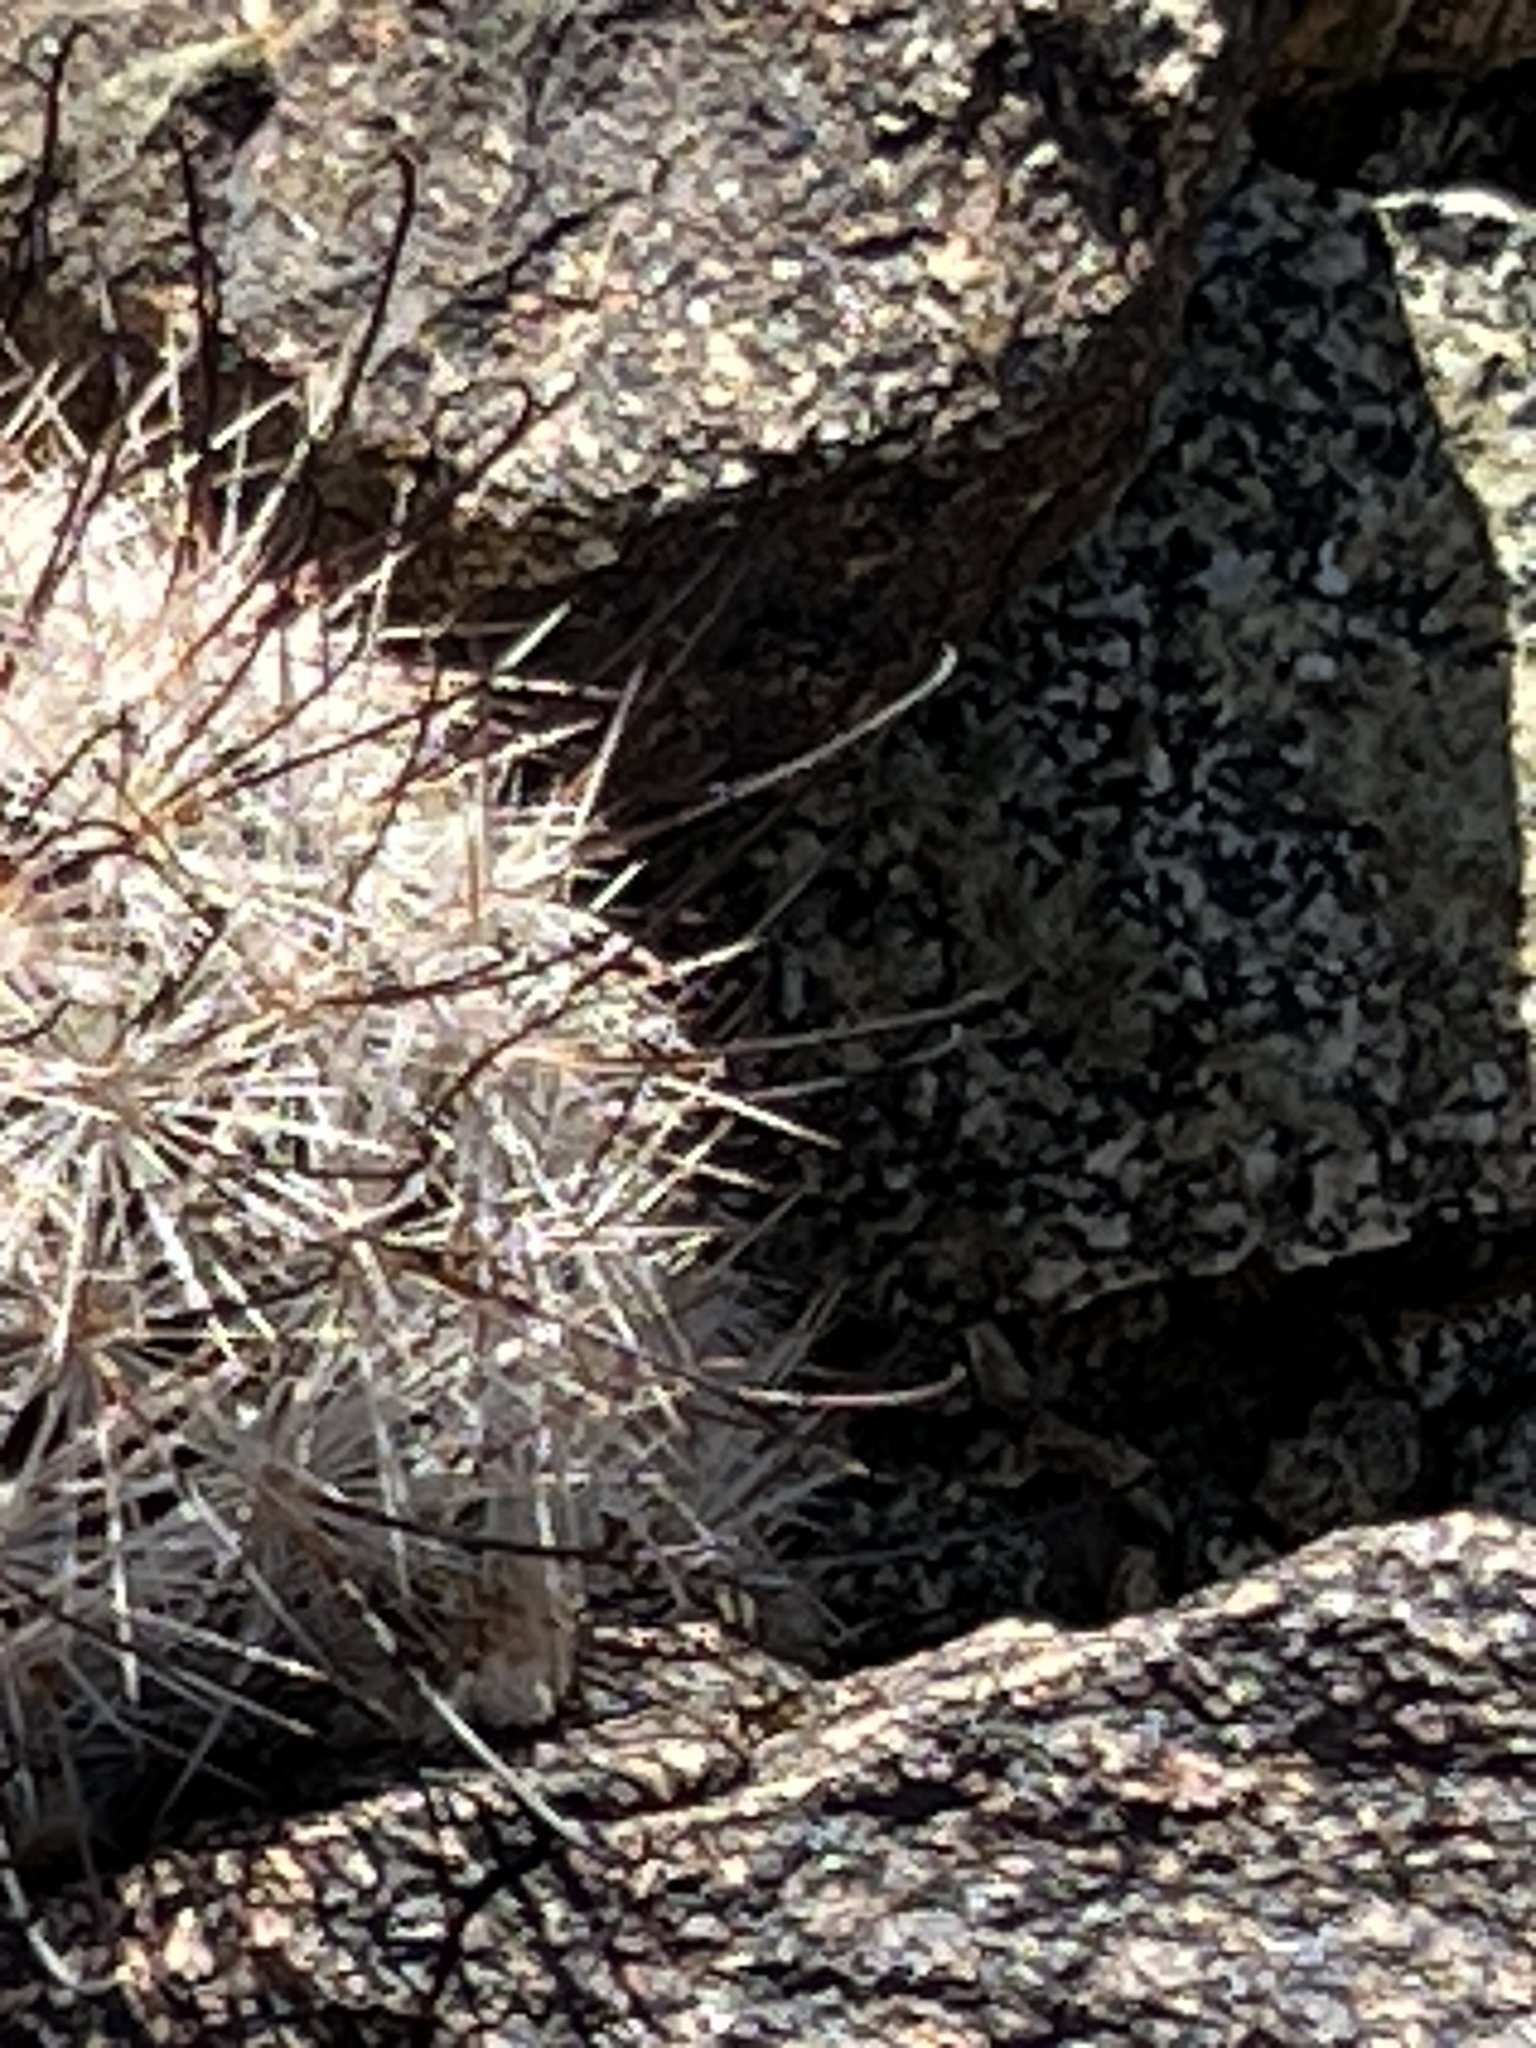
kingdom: Plantae
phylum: Tracheophyta
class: Magnoliopsida
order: Caryophyllales
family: Cactaceae
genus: Cochemiea
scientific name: Cochemiea tetrancistra
